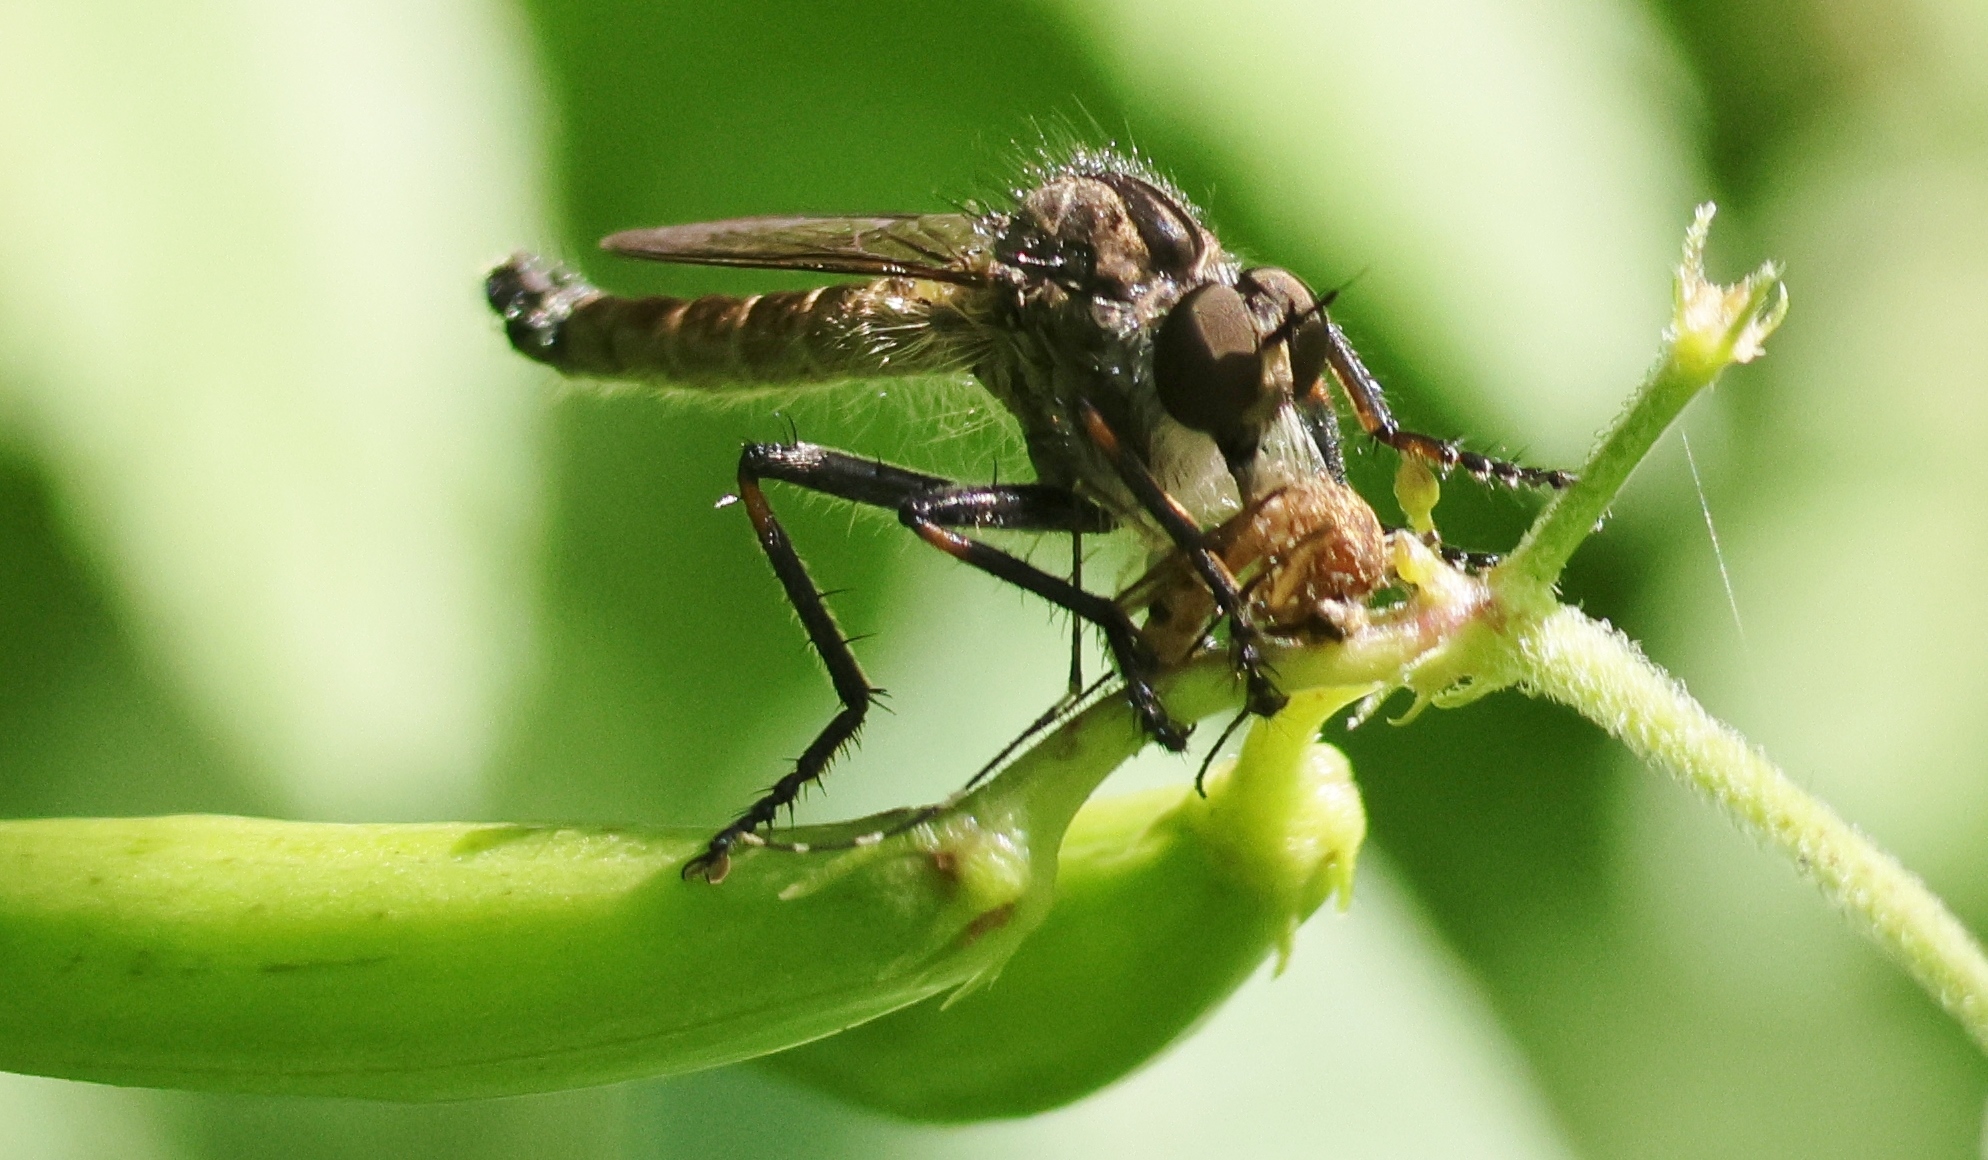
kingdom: Animalia
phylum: Arthropoda
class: Insecta
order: Diptera
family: Asilidae
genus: Machimus
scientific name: Machimus notatus
